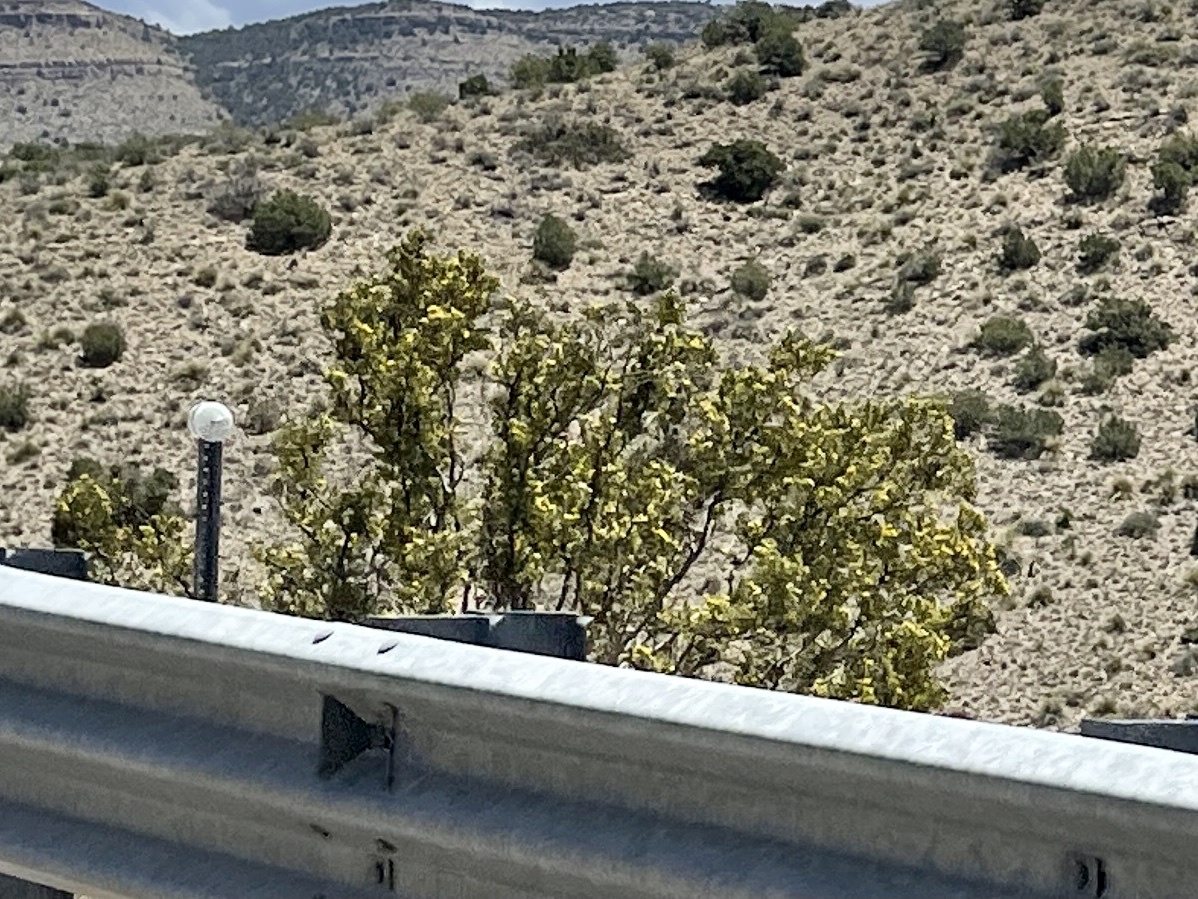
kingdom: Plantae
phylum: Tracheophyta
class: Magnoliopsida
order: Zygophyllales
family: Zygophyllaceae
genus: Larrea
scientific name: Larrea tridentata
